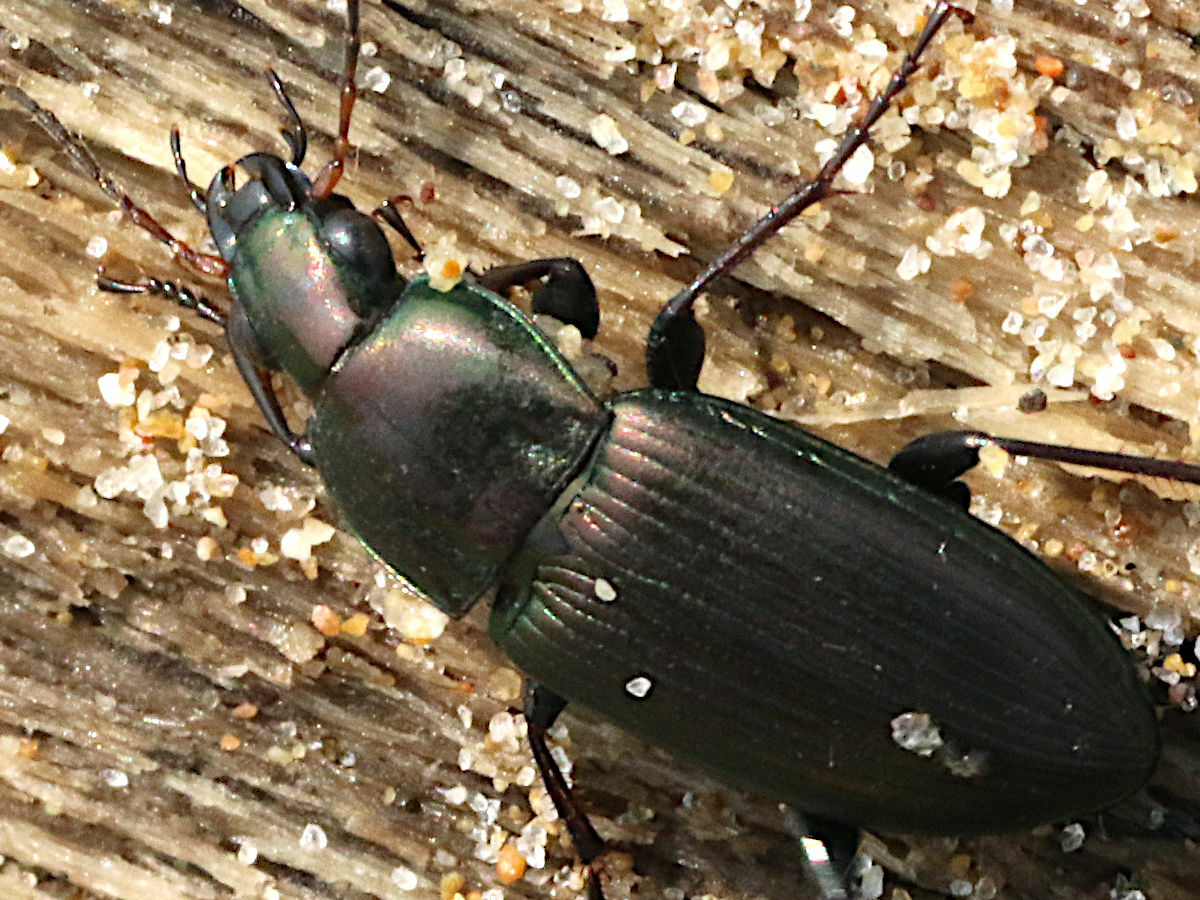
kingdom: Animalia
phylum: Arthropoda
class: Insecta
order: Coleoptera
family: Carabidae
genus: Poecilus
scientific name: Poecilus chalcites
